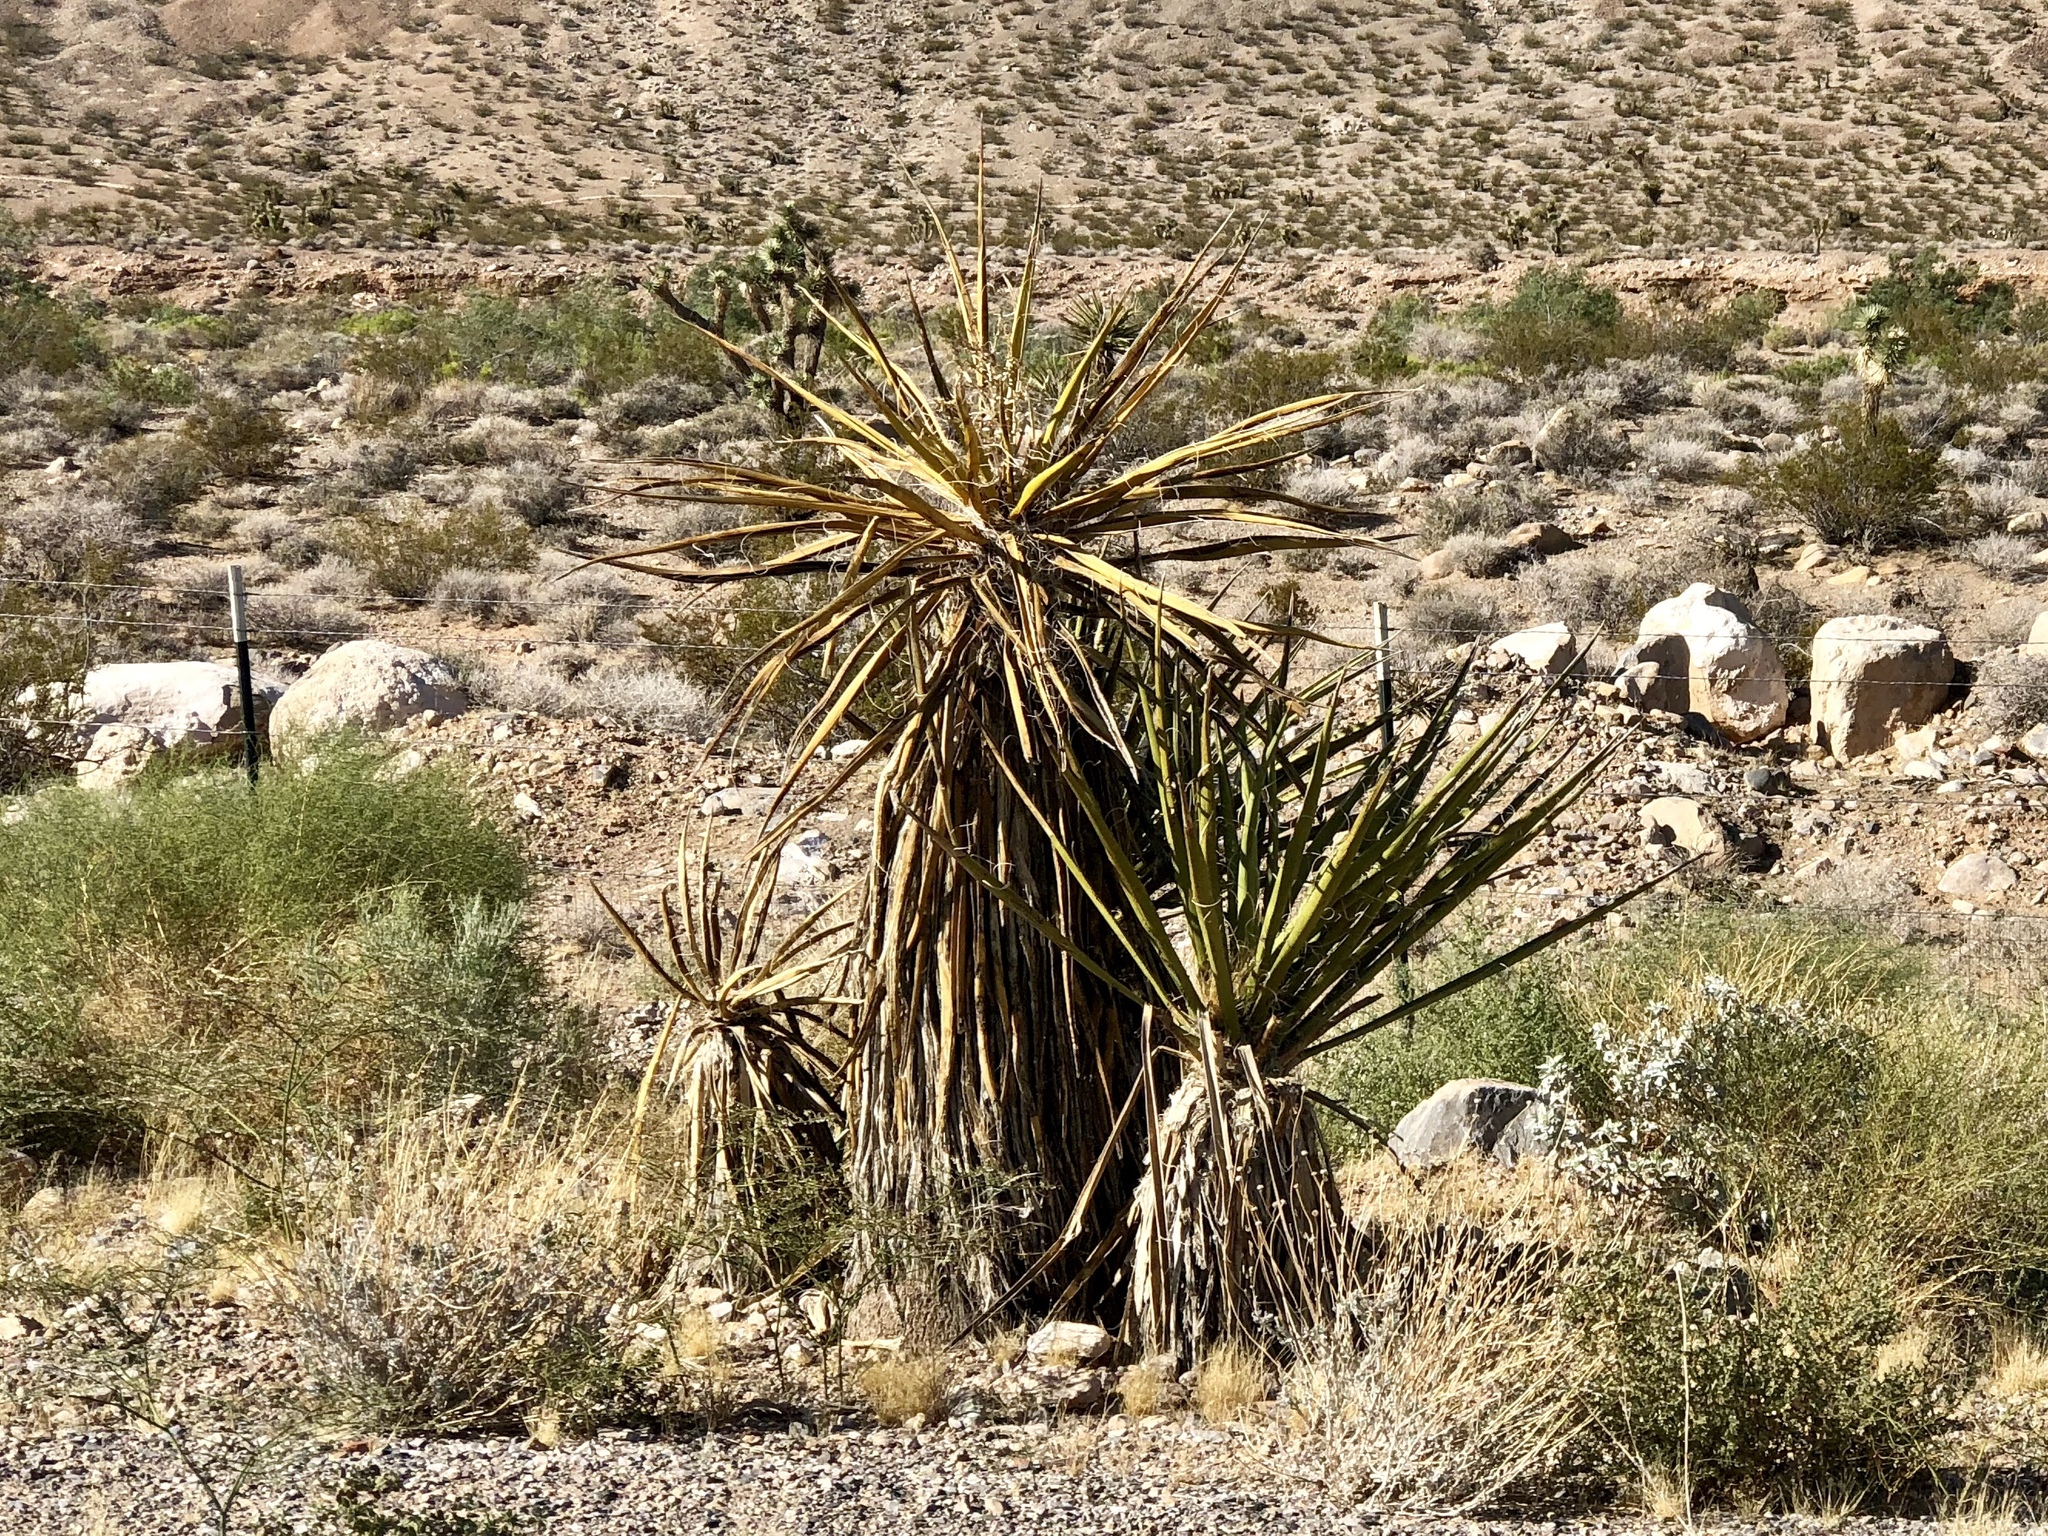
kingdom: Plantae
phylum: Tracheophyta
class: Liliopsida
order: Asparagales
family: Asparagaceae
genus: Yucca
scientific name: Yucca schidigera
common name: Mojave yucca
